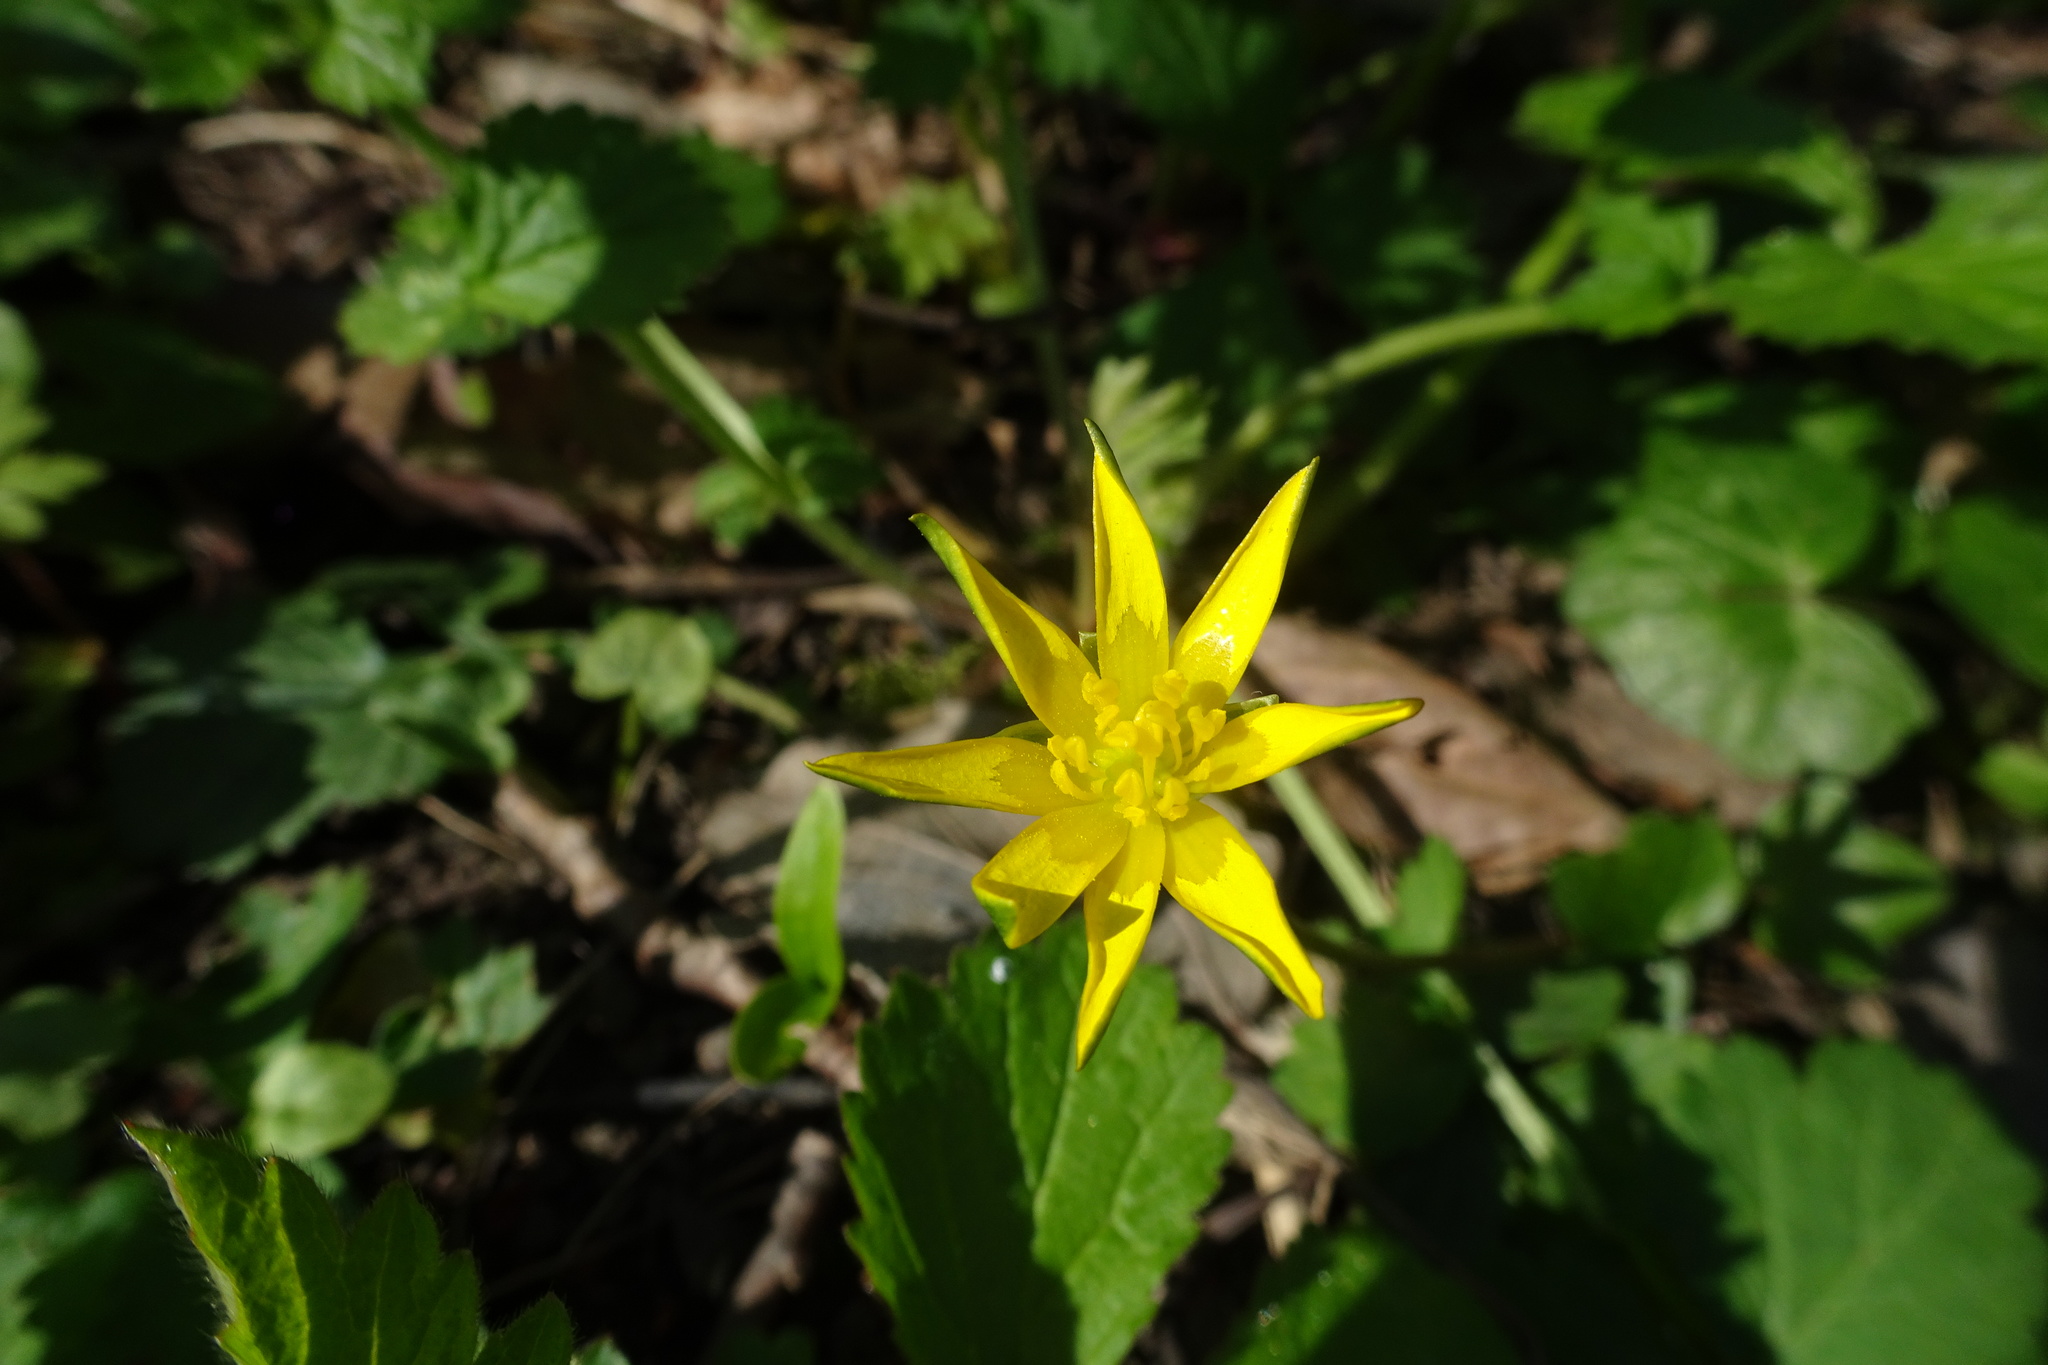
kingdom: Plantae
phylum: Tracheophyta
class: Magnoliopsida
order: Ranunculales
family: Ranunculaceae
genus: Ficaria
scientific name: Ficaria verna
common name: Lesser celandine
